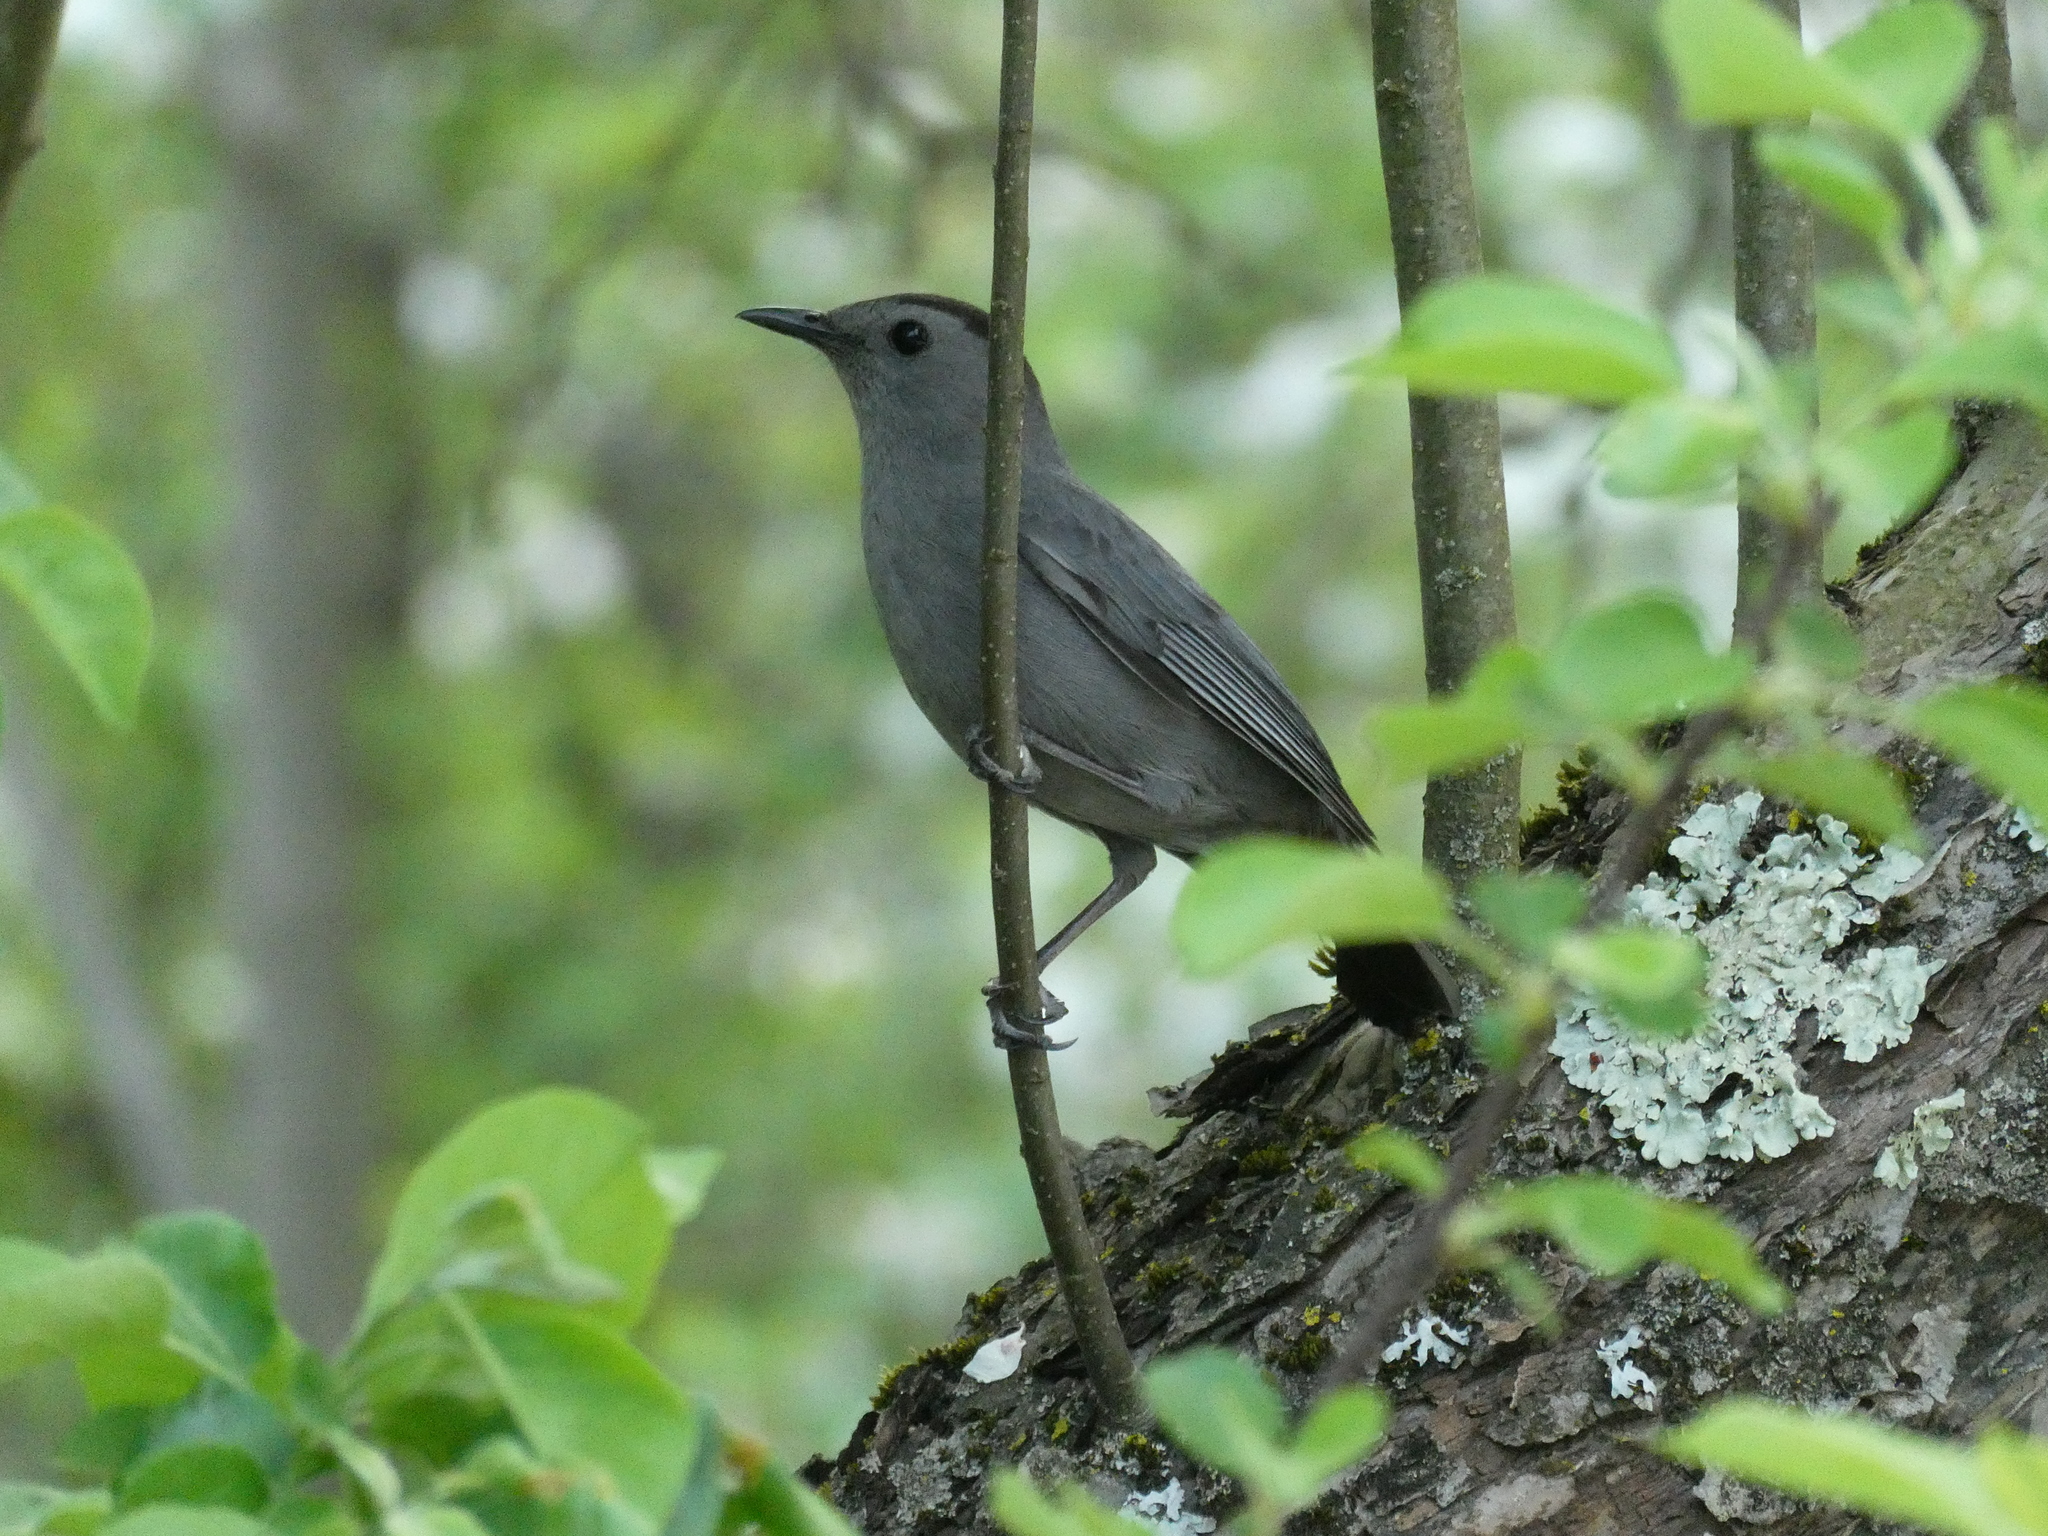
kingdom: Animalia
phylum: Chordata
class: Aves
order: Passeriformes
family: Mimidae
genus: Dumetella
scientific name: Dumetella carolinensis
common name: Gray catbird
